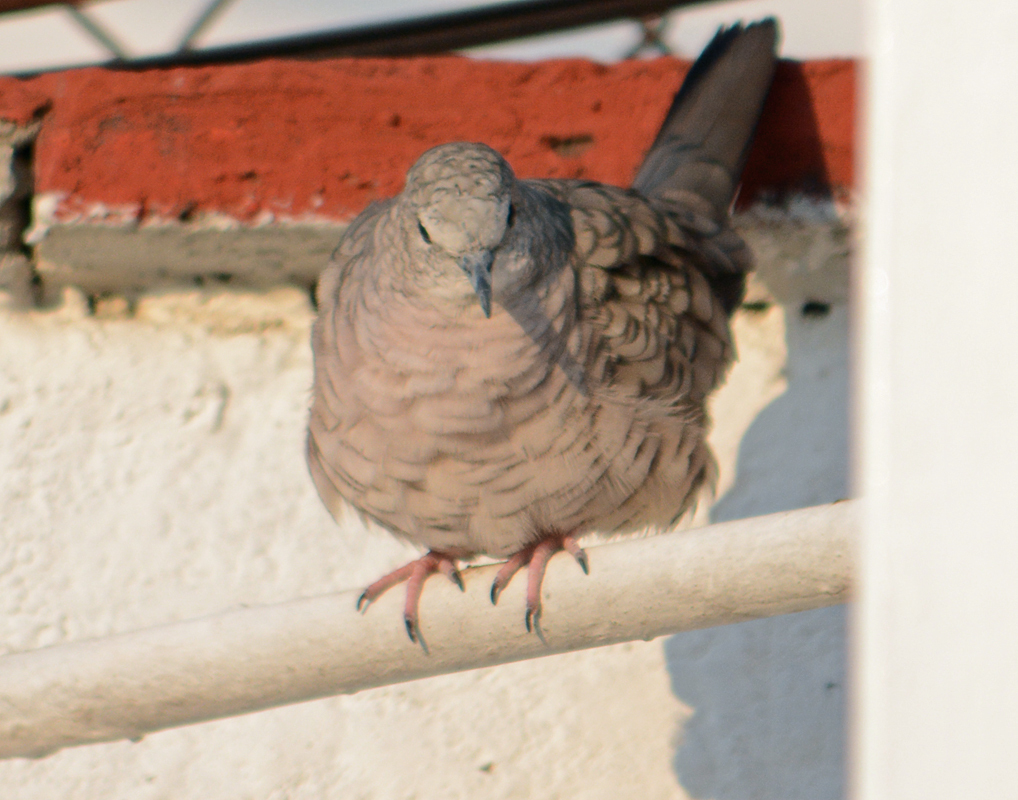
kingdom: Animalia
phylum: Chordata
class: Aves
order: Columbiformes
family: Columbidae
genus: Columbina
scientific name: Columbina inca
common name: Inca dove
